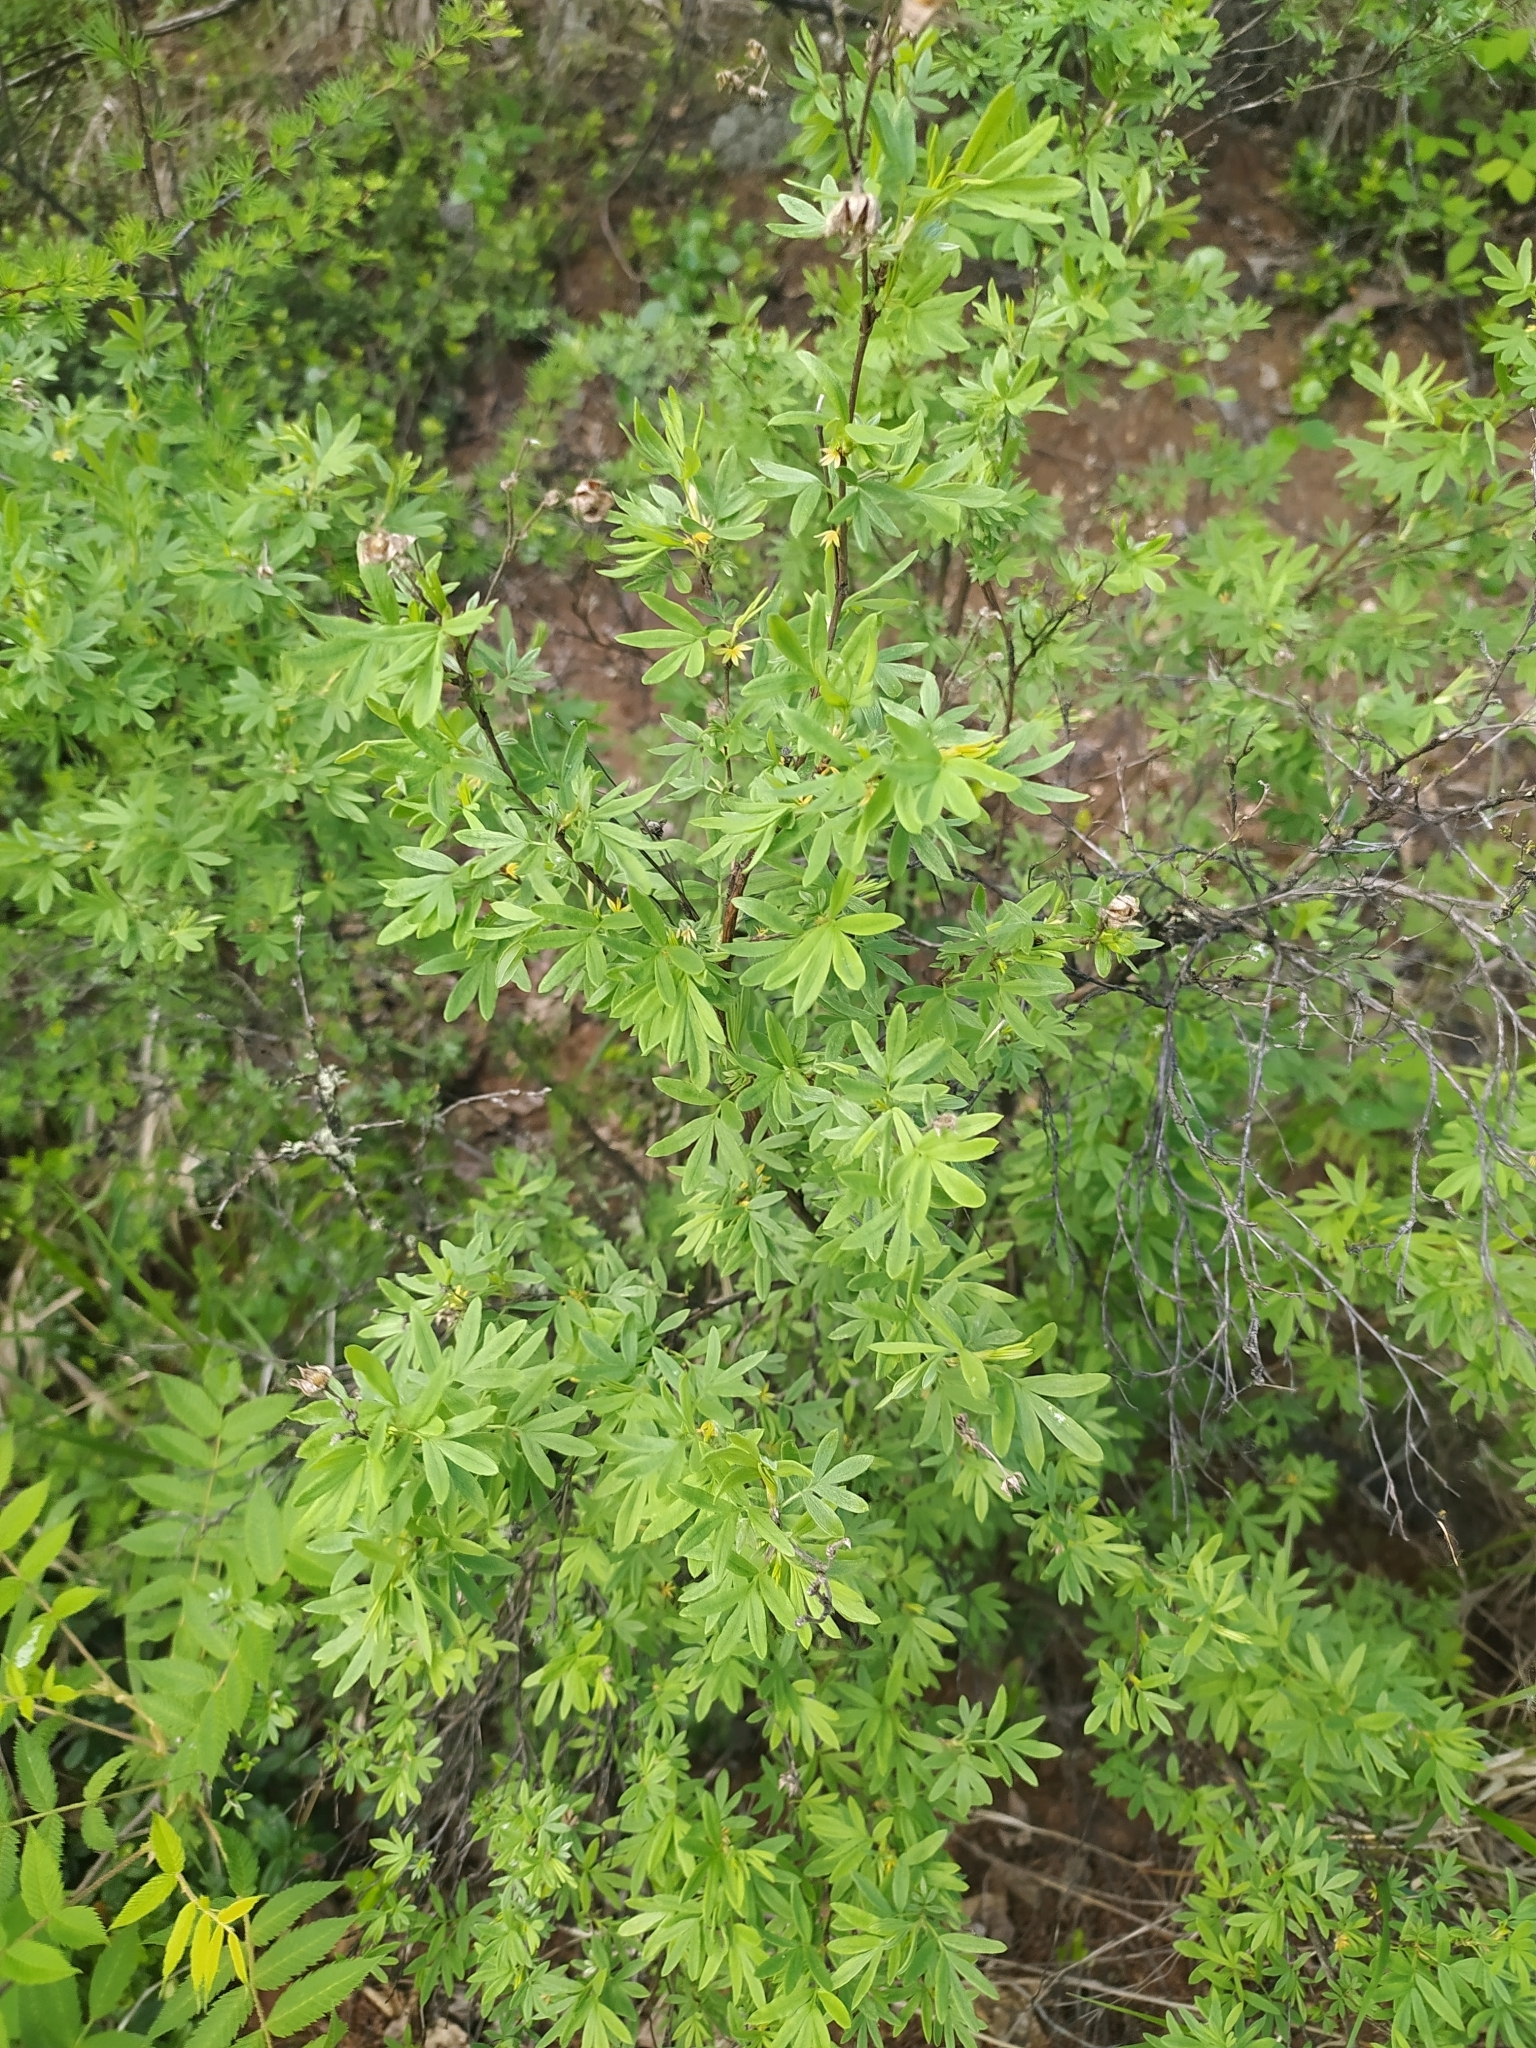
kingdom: Plantae
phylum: Tracheophyta
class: Magnoliopsida
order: Rosales
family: Rosaceae
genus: Dasiphora
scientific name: Dasiphora fruticosa
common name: Shrubby cinquefoil
